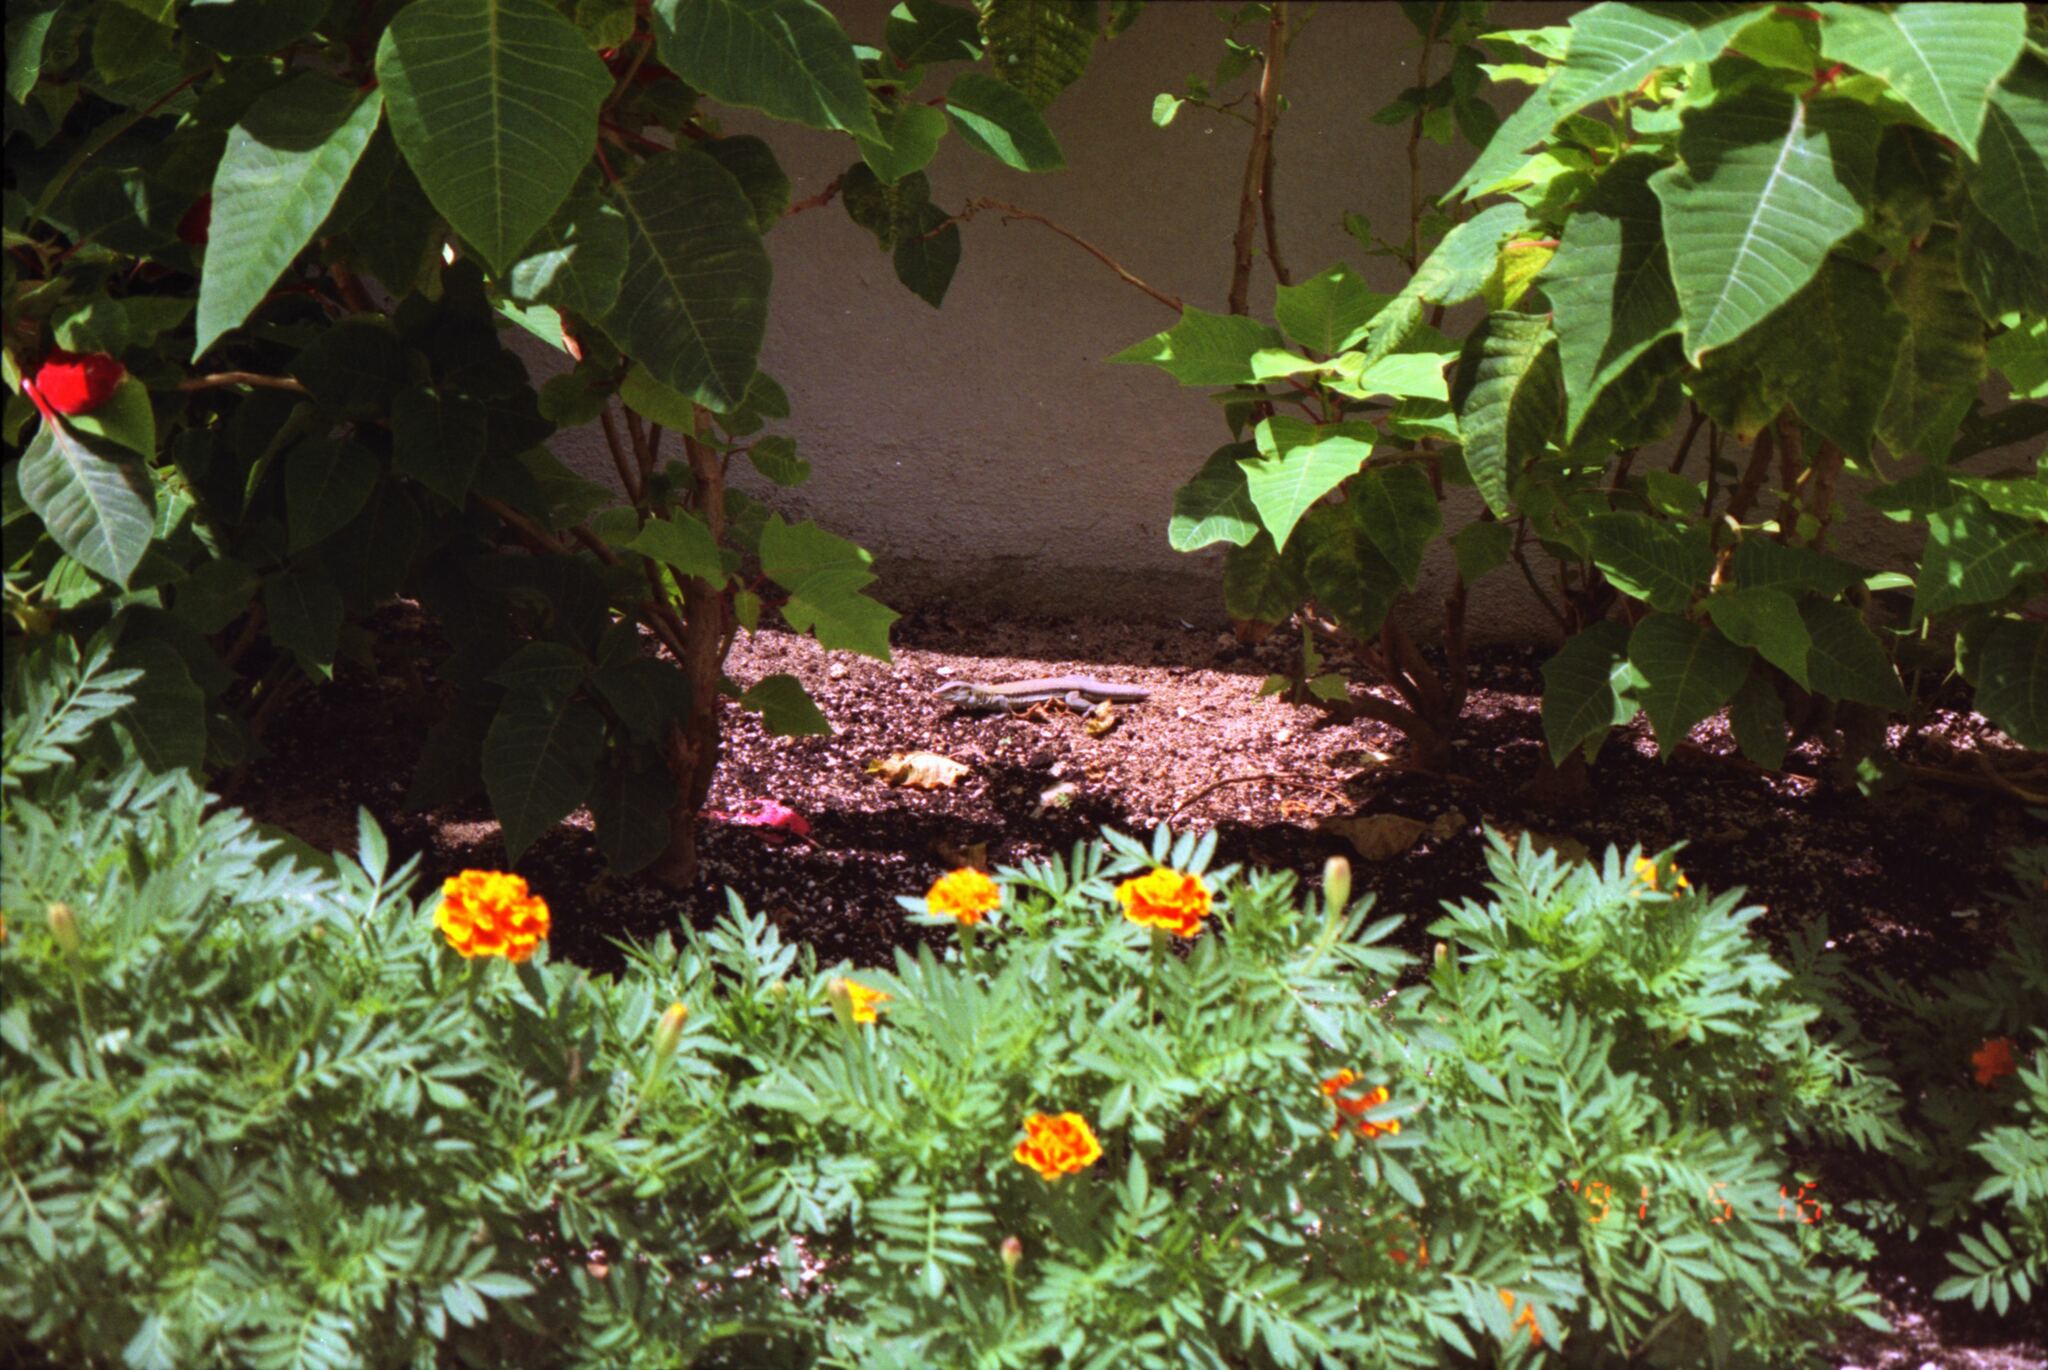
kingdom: Animalia
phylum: Chordata
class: Squamata
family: Teiidae
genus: Pholidoscelis
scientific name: Pholidoscelis auberi
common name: Auber's ameiva
